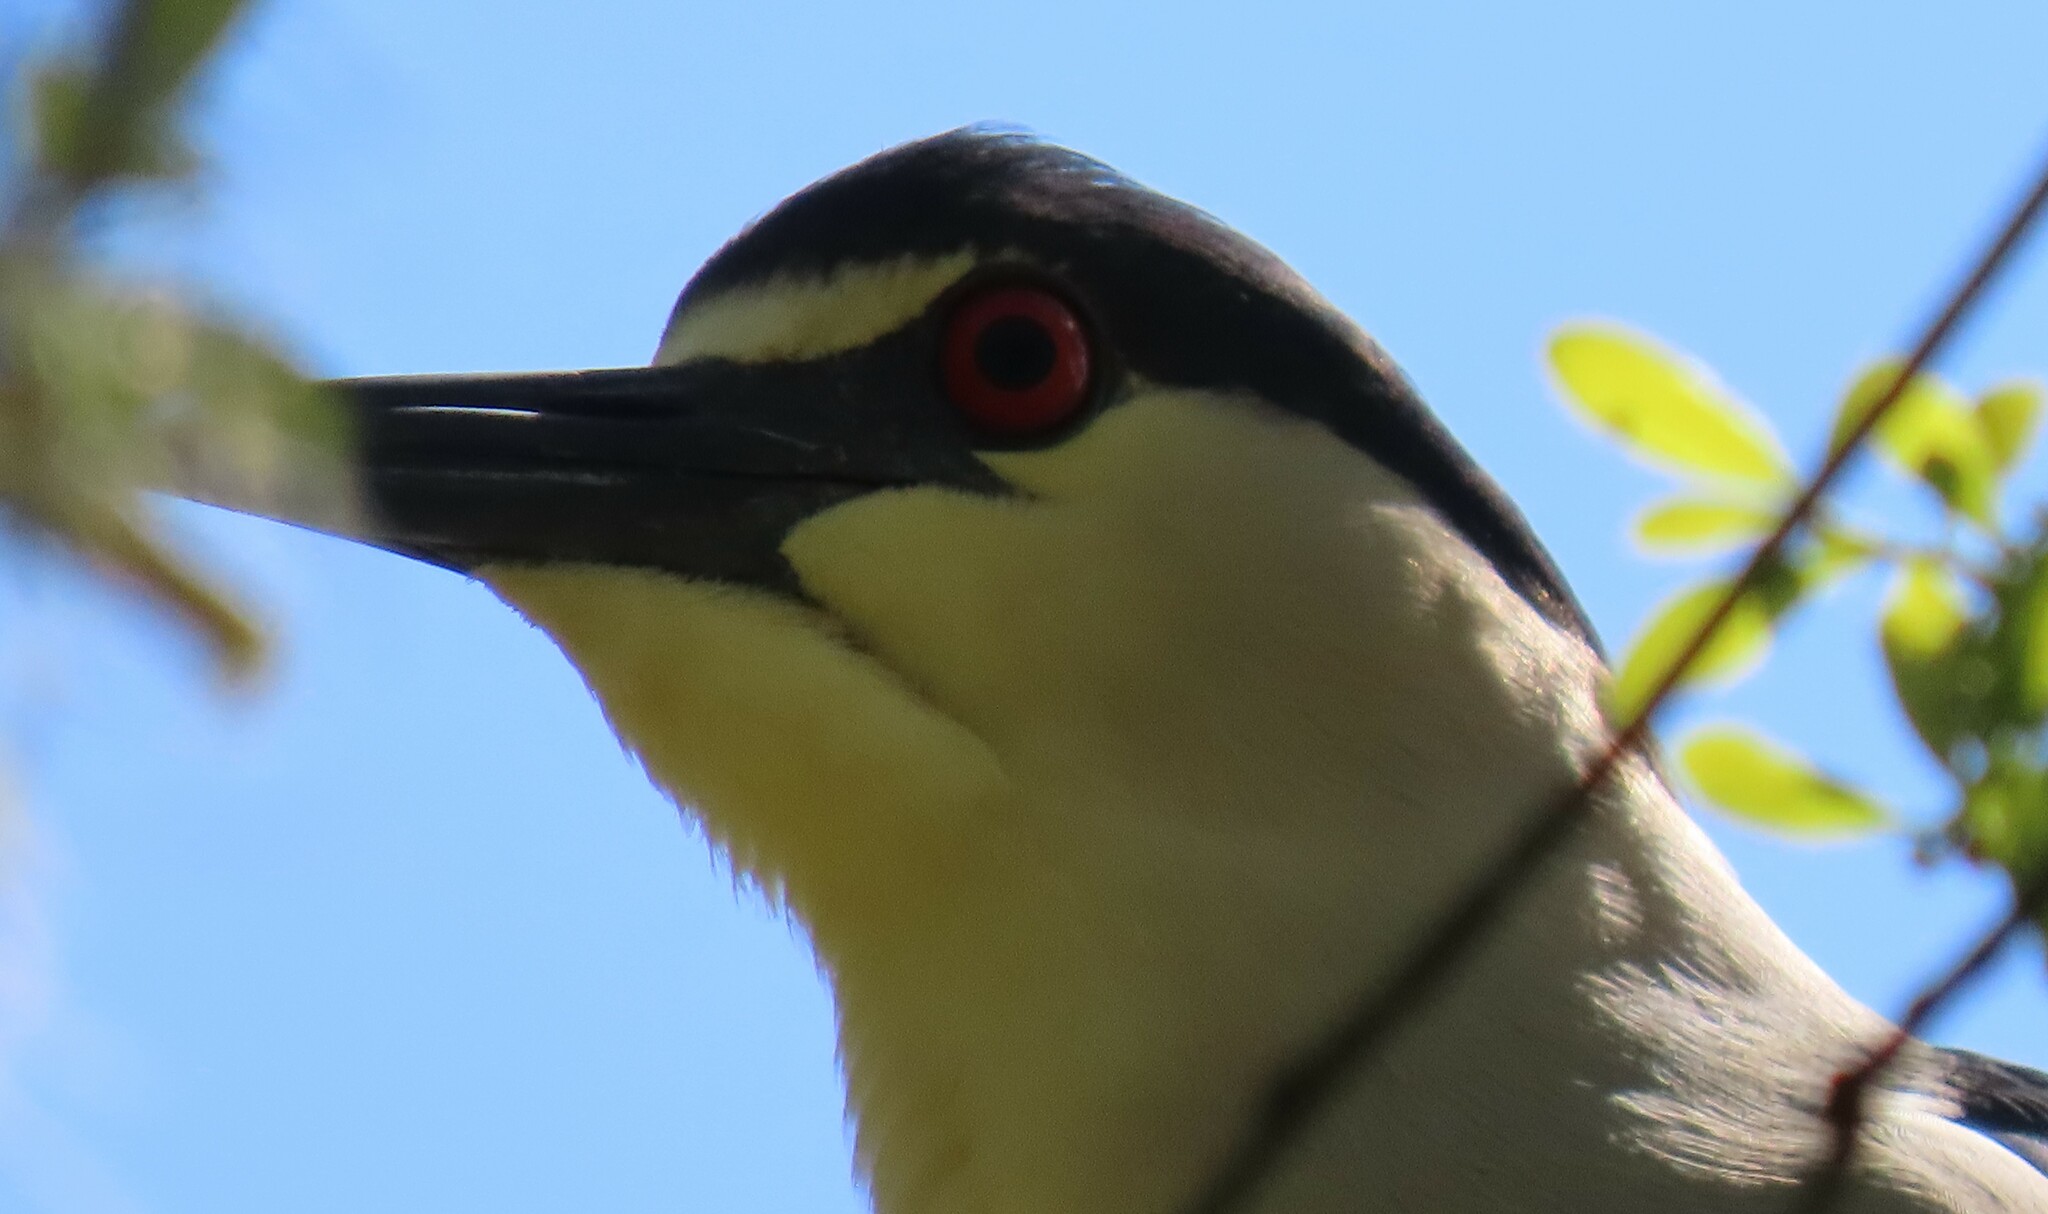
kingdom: Animalia
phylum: Chordata
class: Aves
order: Pelecaniformes
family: Ardeidae
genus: Nycticorax
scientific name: Nycticorax nycticorax
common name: Black-crowned night heron
